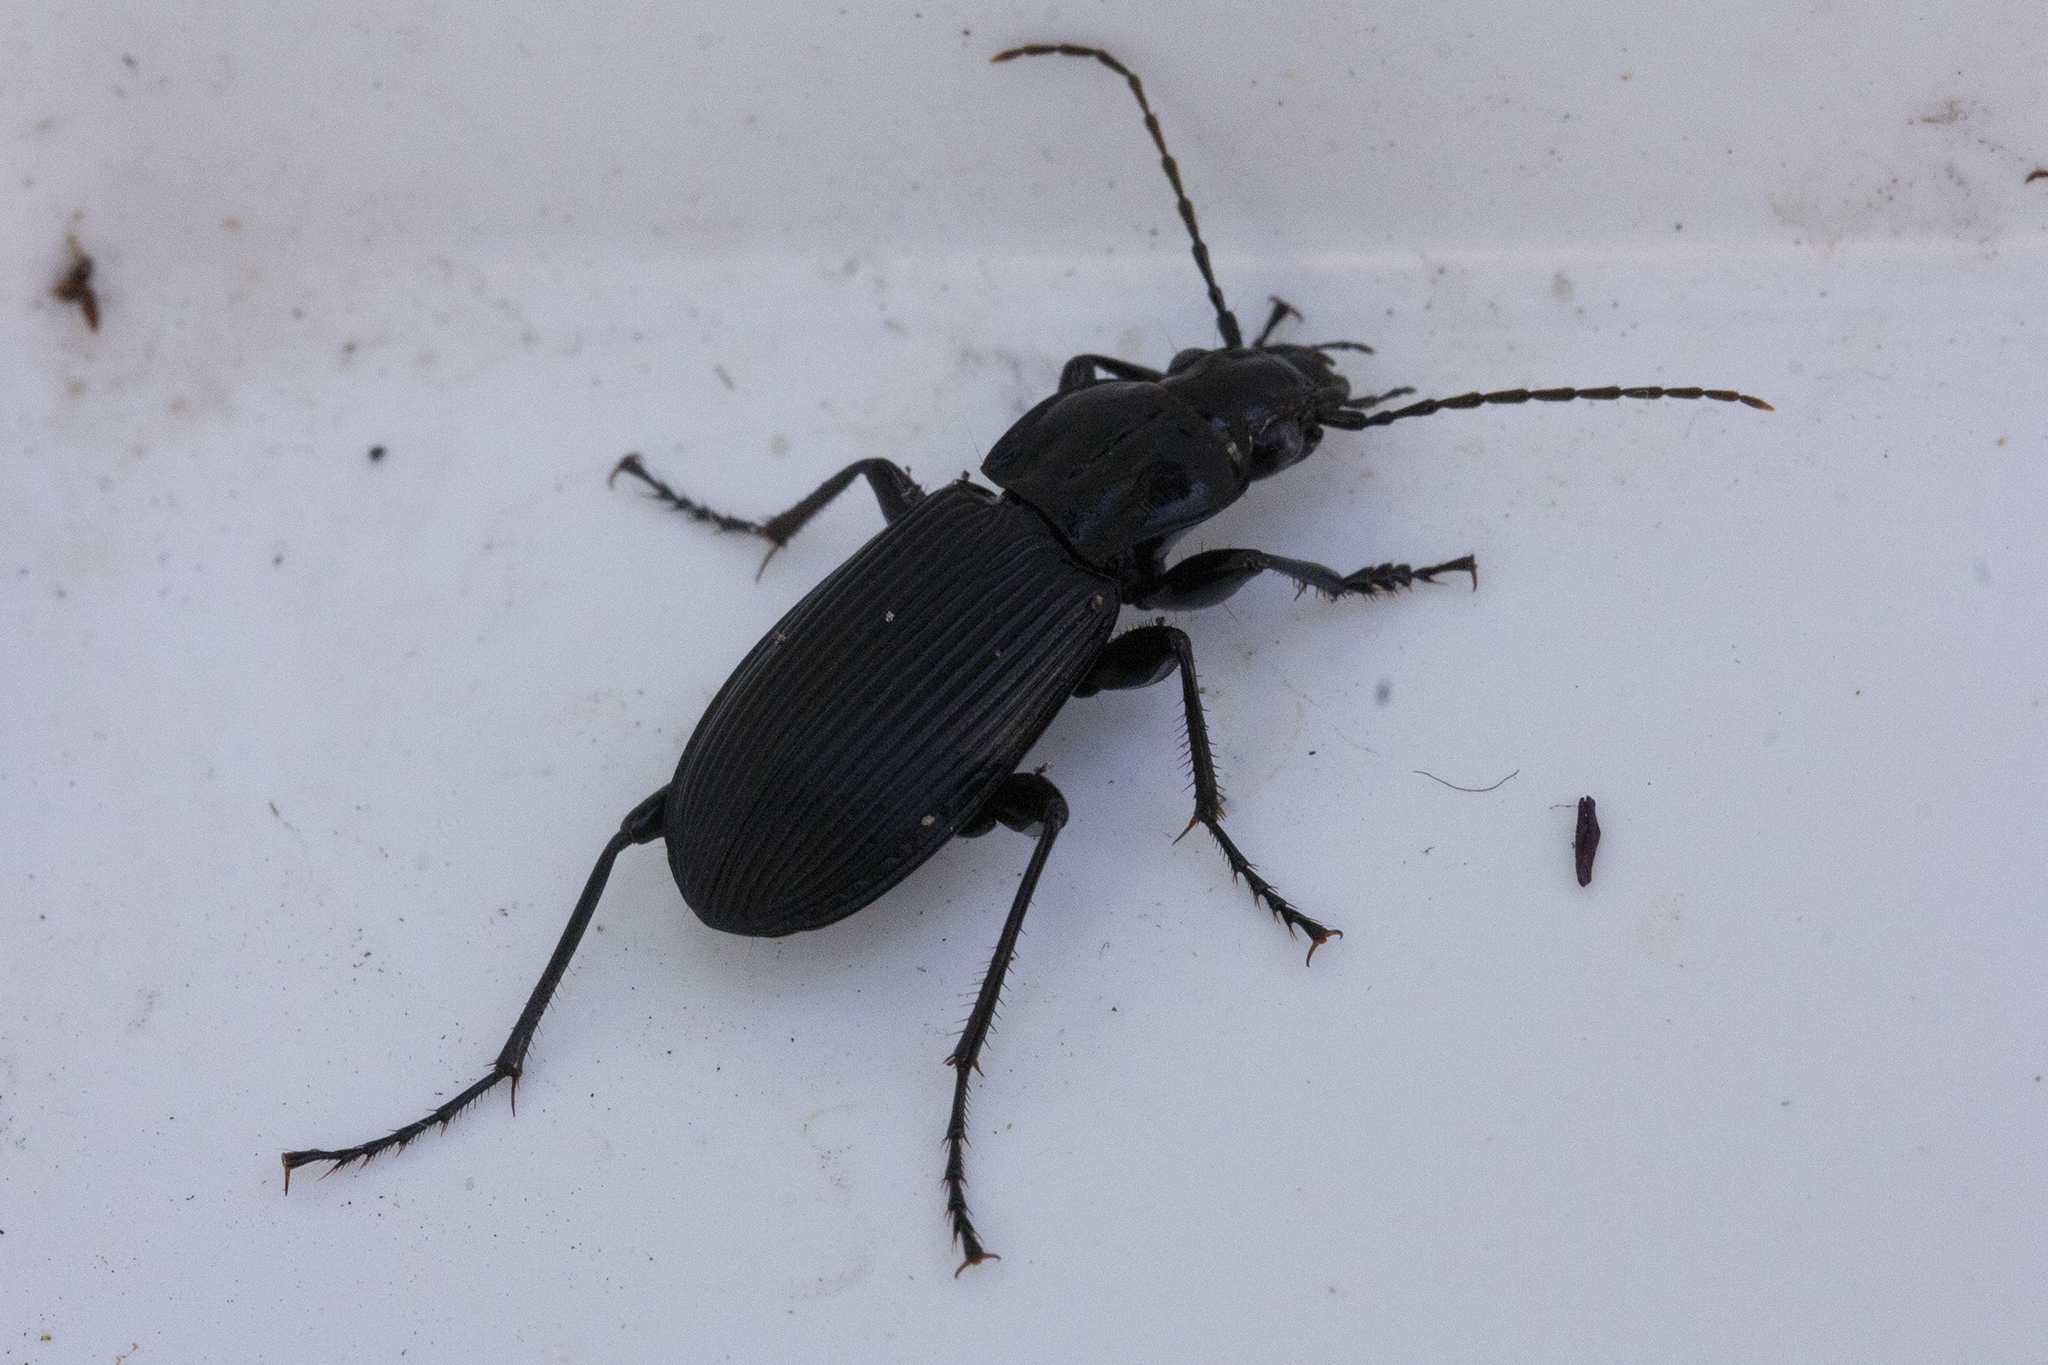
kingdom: Animalia
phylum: Arthropoda
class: Insecta
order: Coleoptera
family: Carabidae
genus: Pterostichus
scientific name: Pterostichus niger
